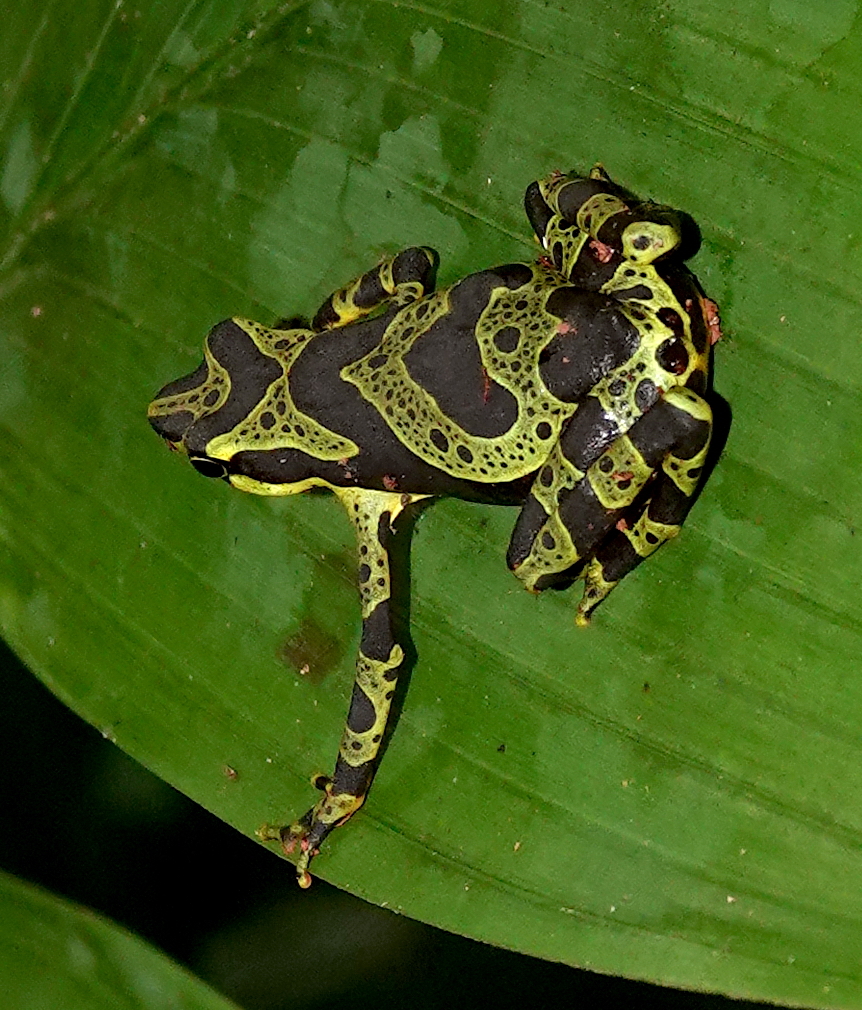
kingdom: Animalia
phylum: Chordata
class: Amphibia
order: Anura
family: Bufonidae
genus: Atelopus
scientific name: Atelopus spurrelli
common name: Condoto stubfoot toad
